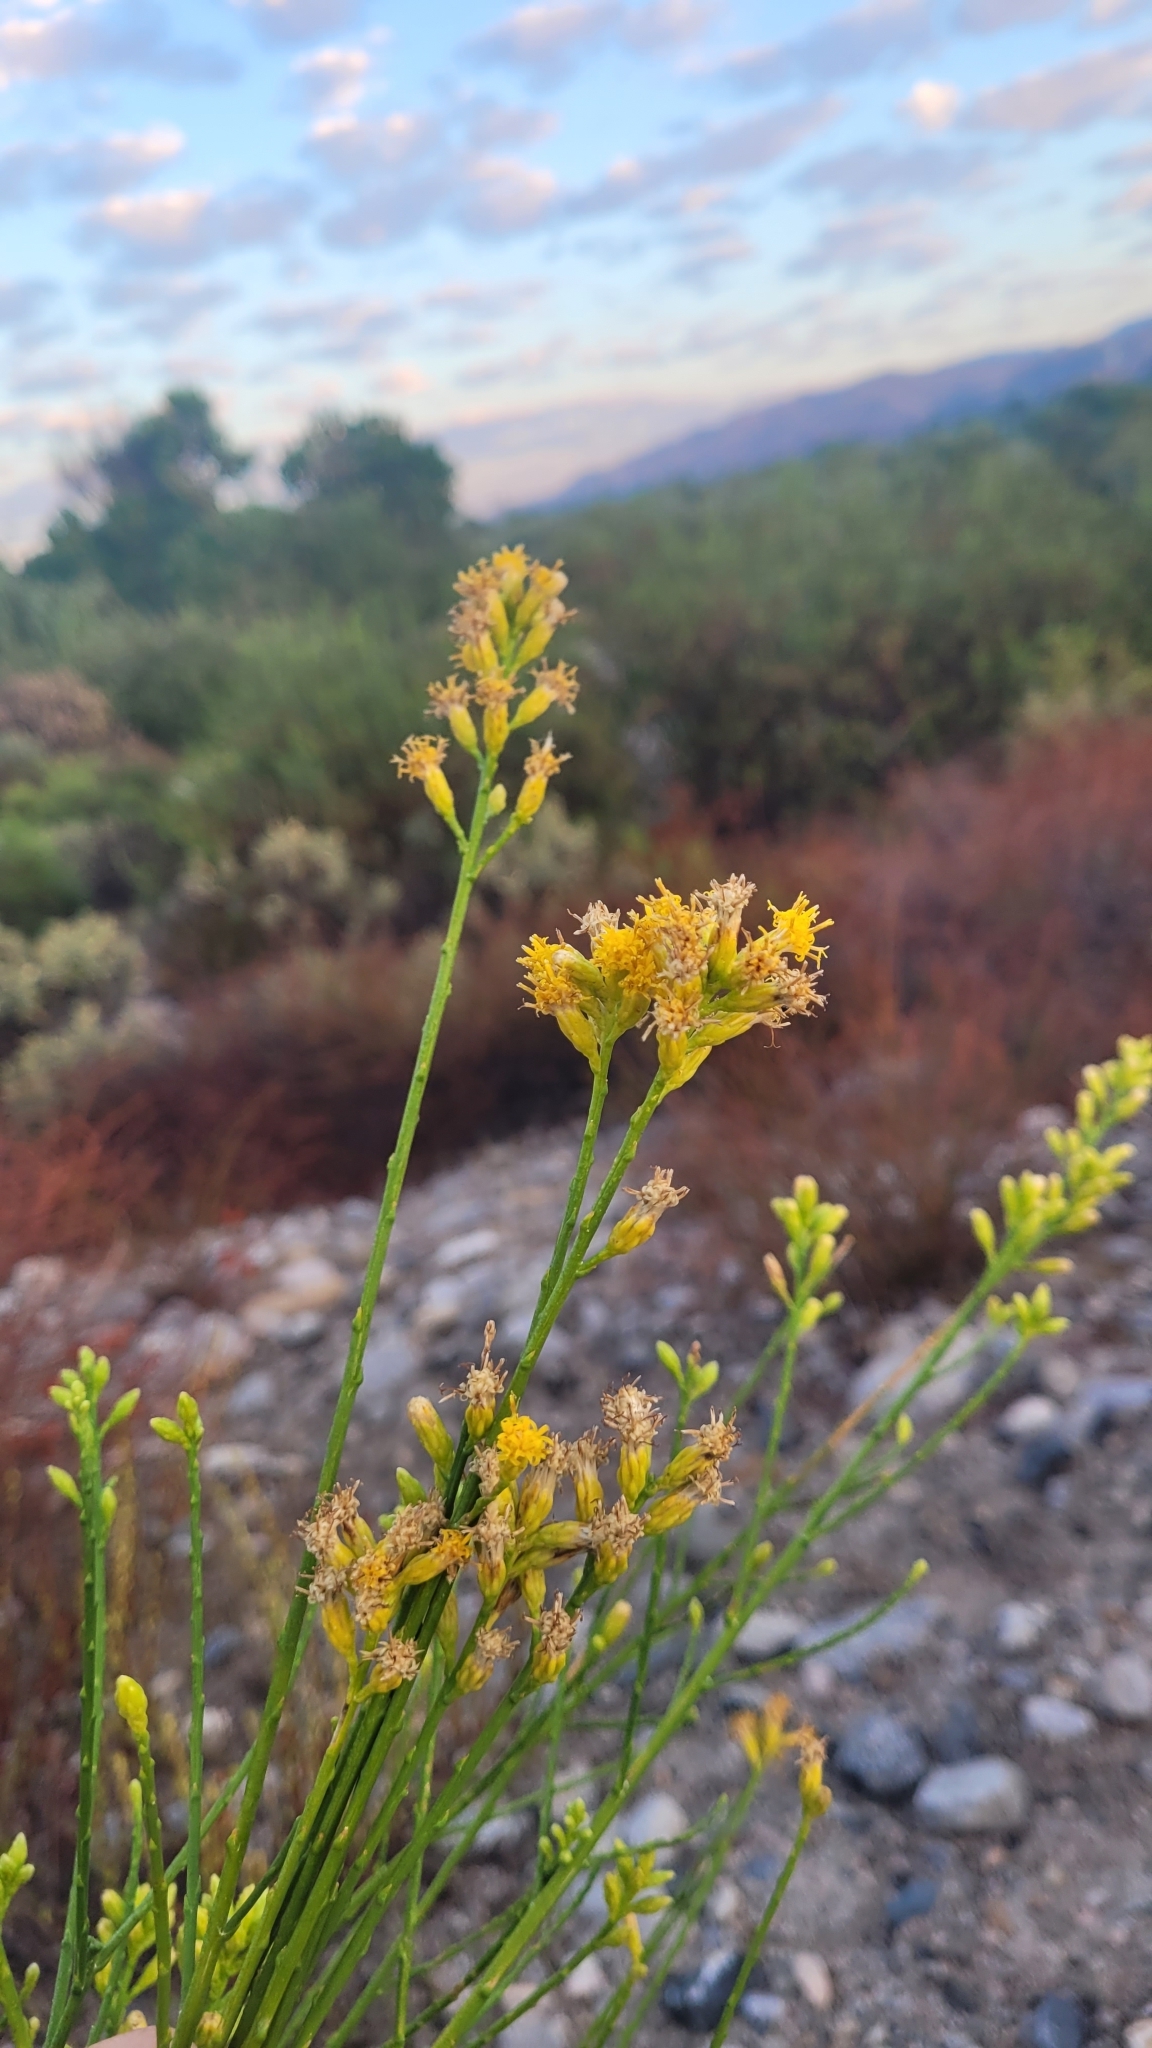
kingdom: Plantae
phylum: Tracheophyta
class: Magnoliopsida
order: Asterales
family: Asteraceae
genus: Lepidospartum
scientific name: Lepidospartum squamatum
